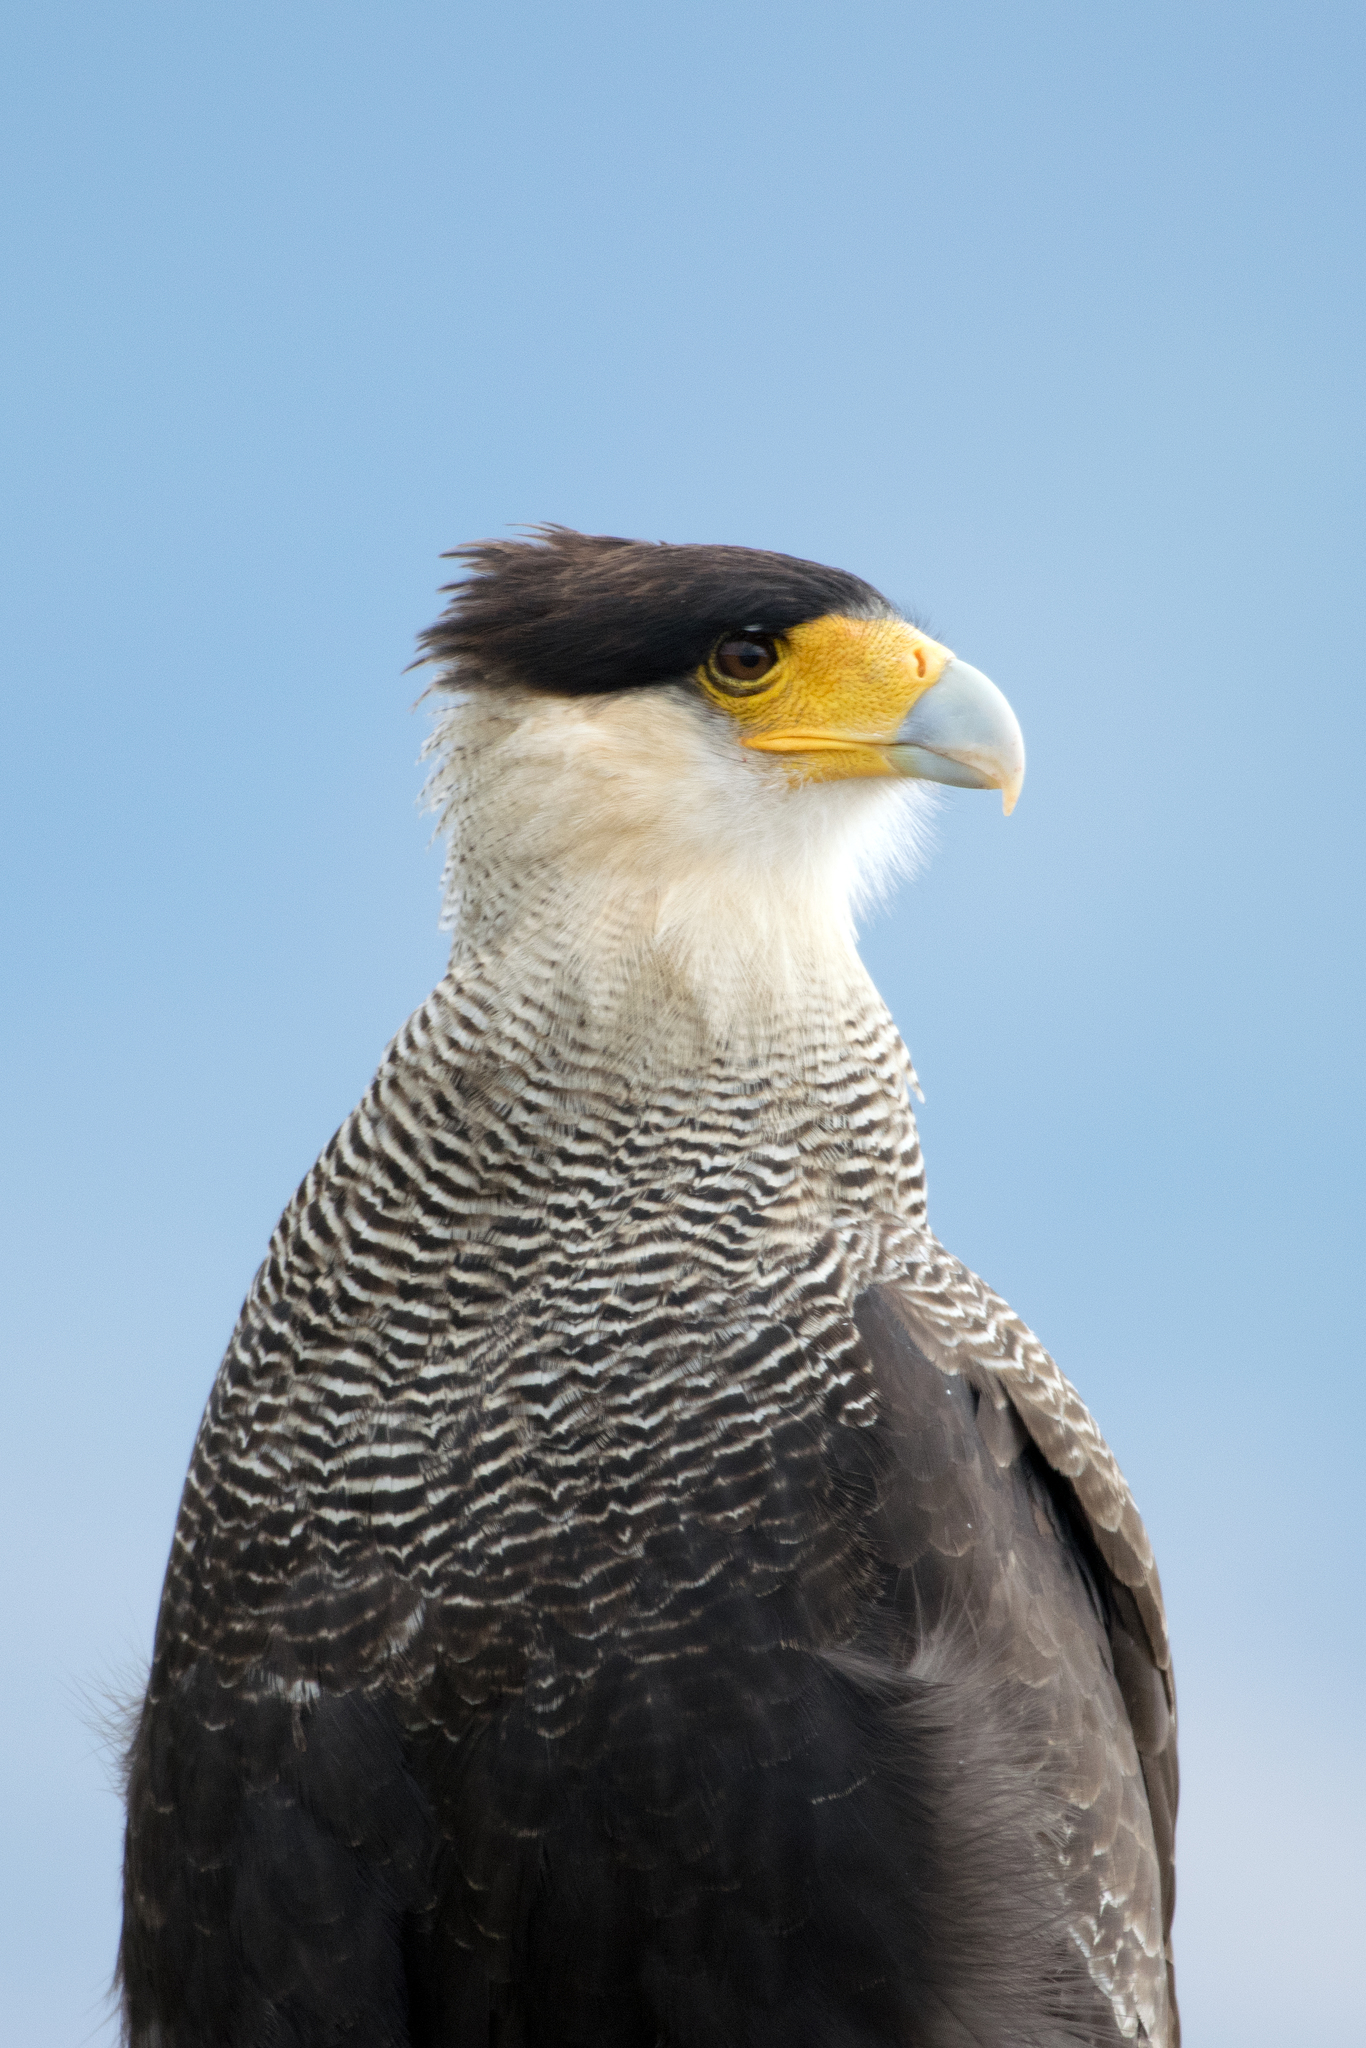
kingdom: Animalia
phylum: Chordata
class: Aves
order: Falconiformes
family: Falconidae
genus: Caracara
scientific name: Caracara plancus
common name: Southern caracara
